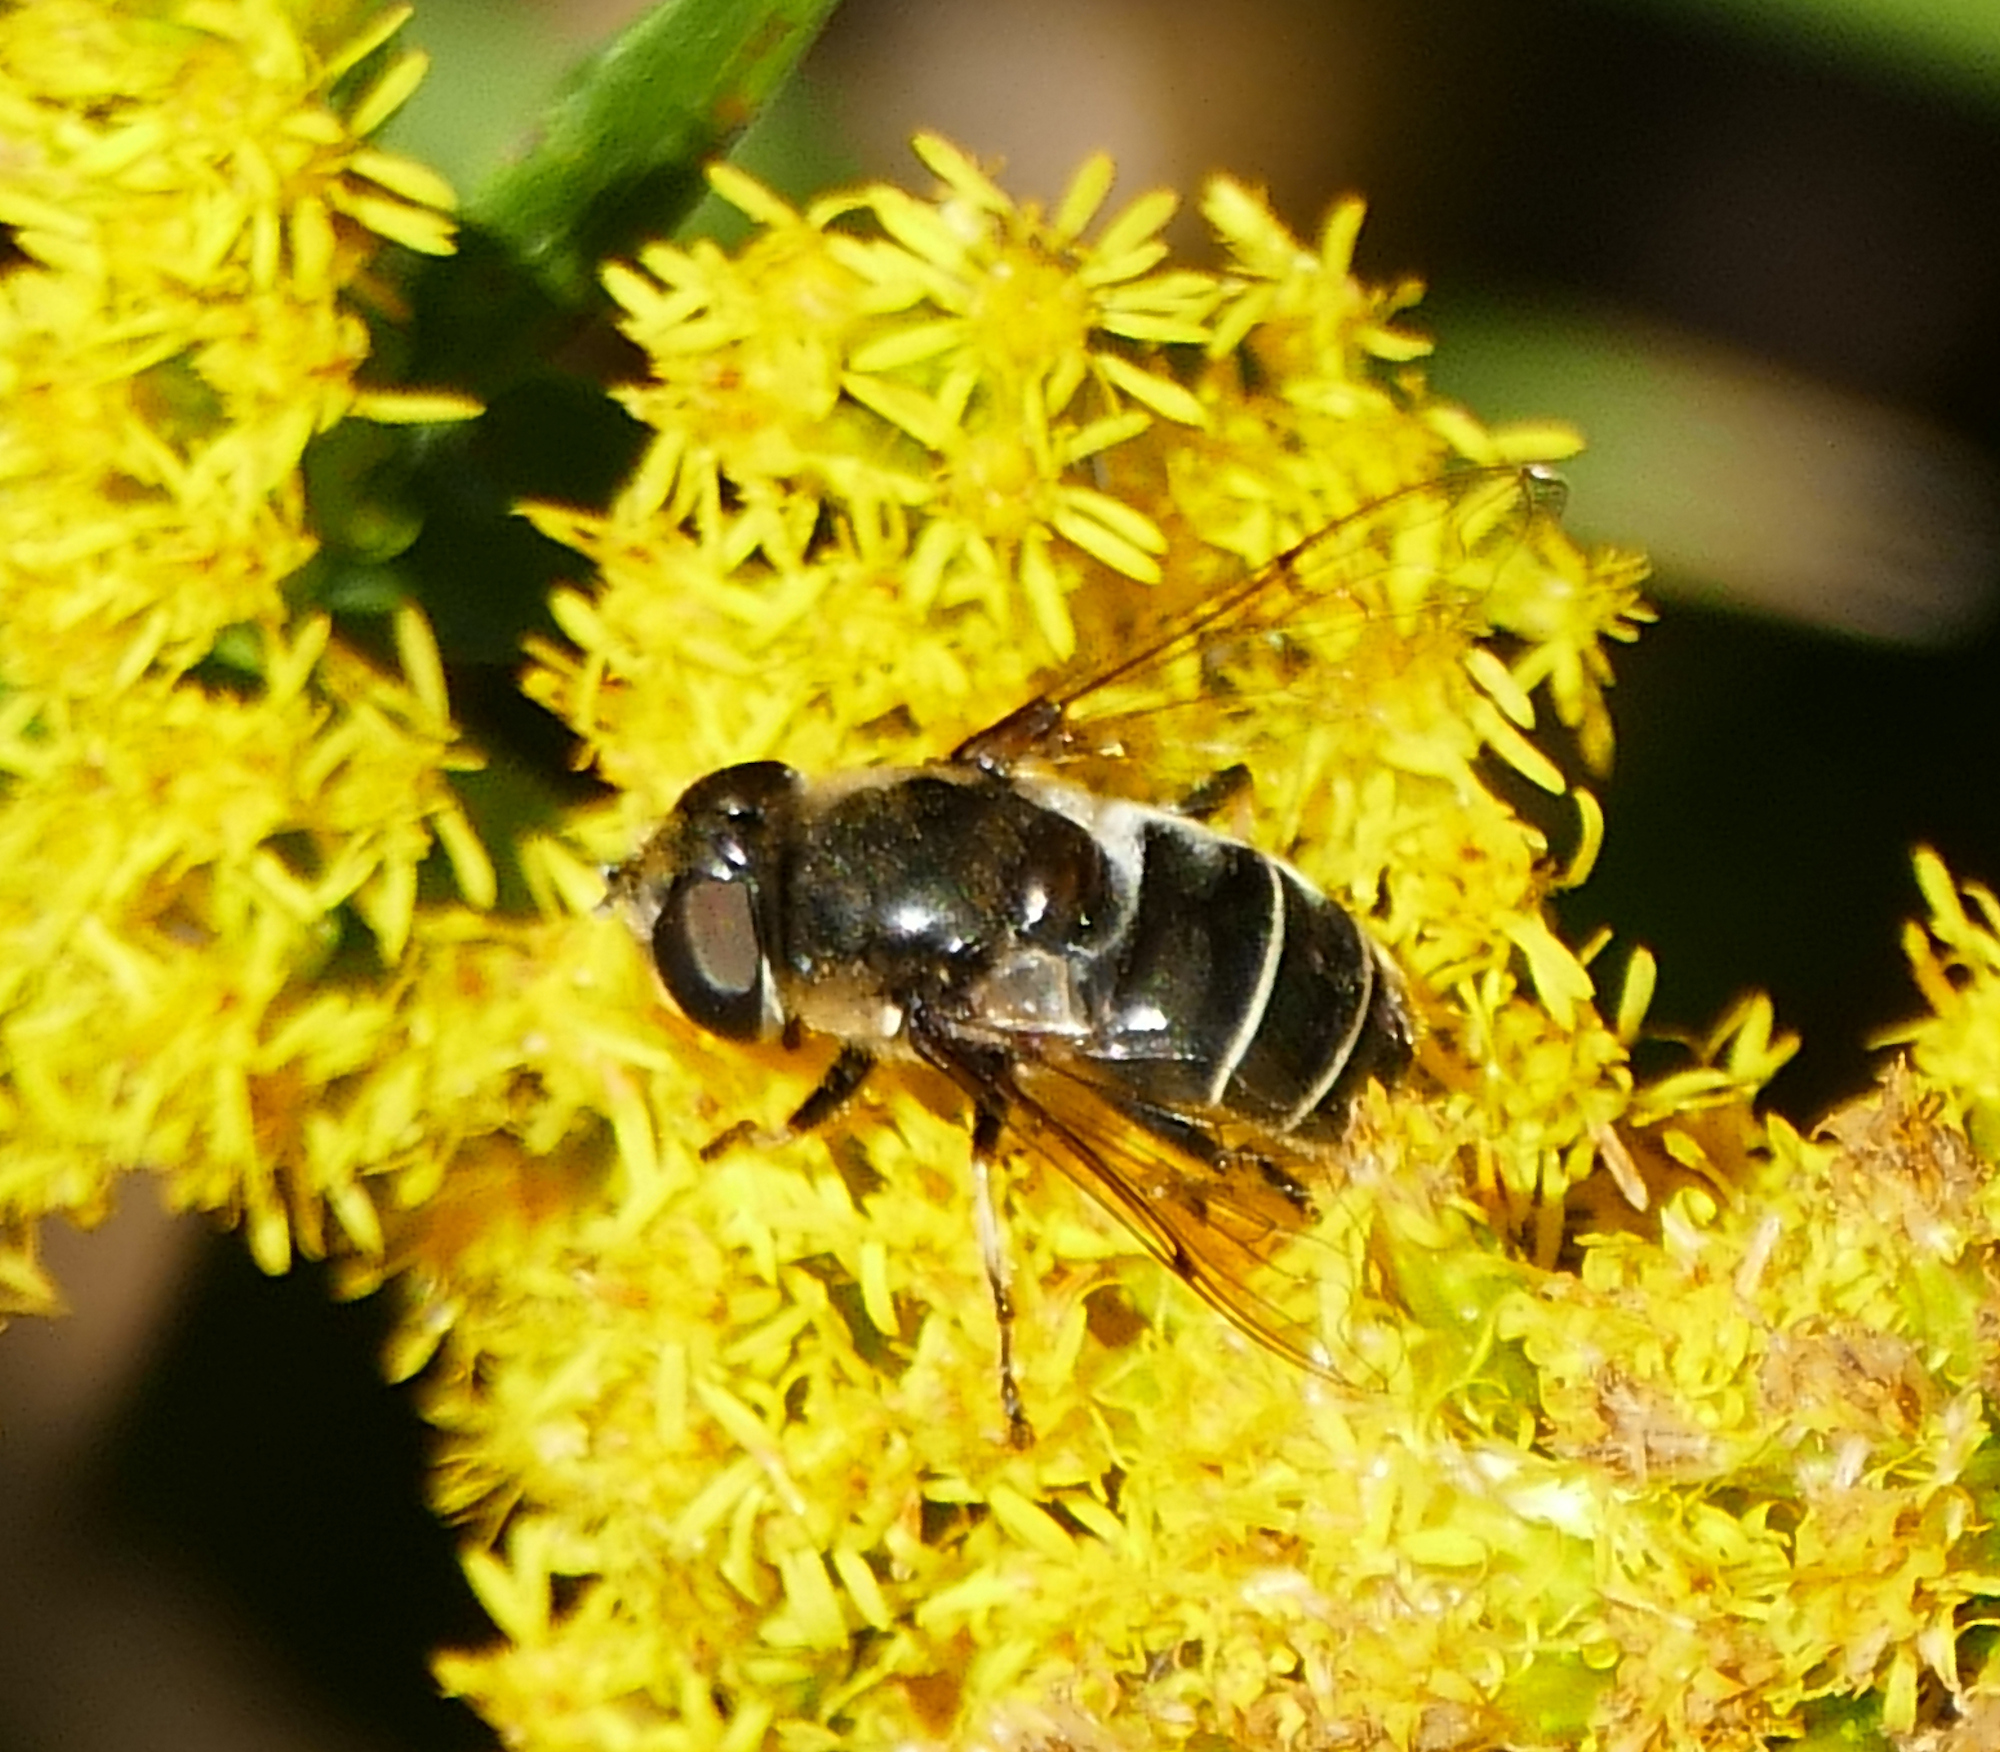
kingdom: Animalia
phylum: Arthropoda
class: Insecta
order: Diptera
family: Syrphidae
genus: Eristalis
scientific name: Eristalis dimidiata
